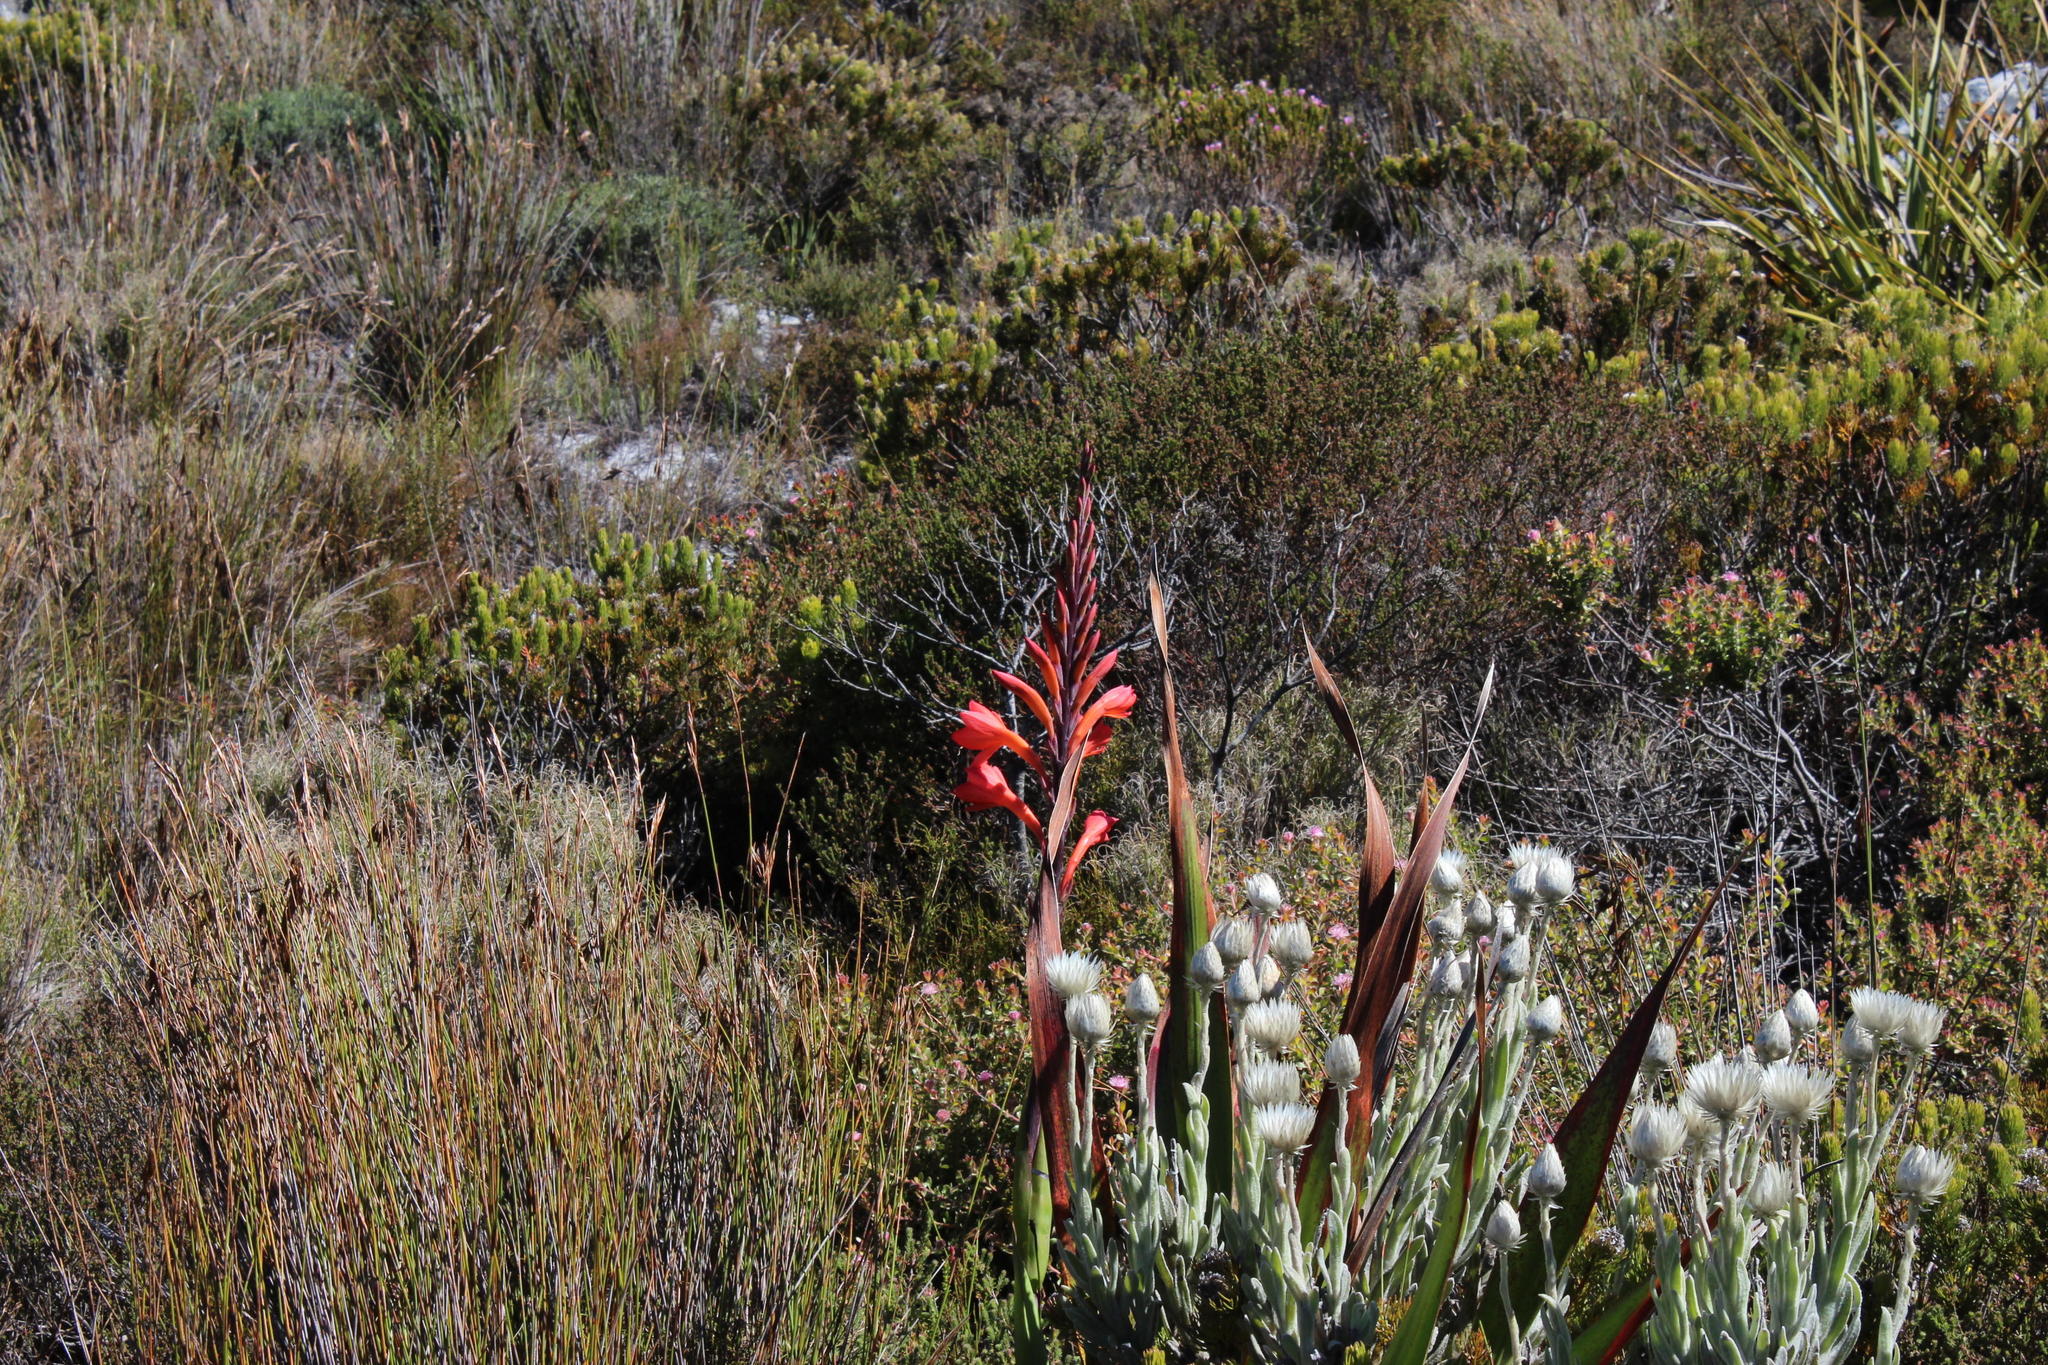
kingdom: Plantae
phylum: Tracheophyta
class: Liliopsida
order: Asparagales
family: Iridaceae
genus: Watsonia
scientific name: Watsonia tabularis
